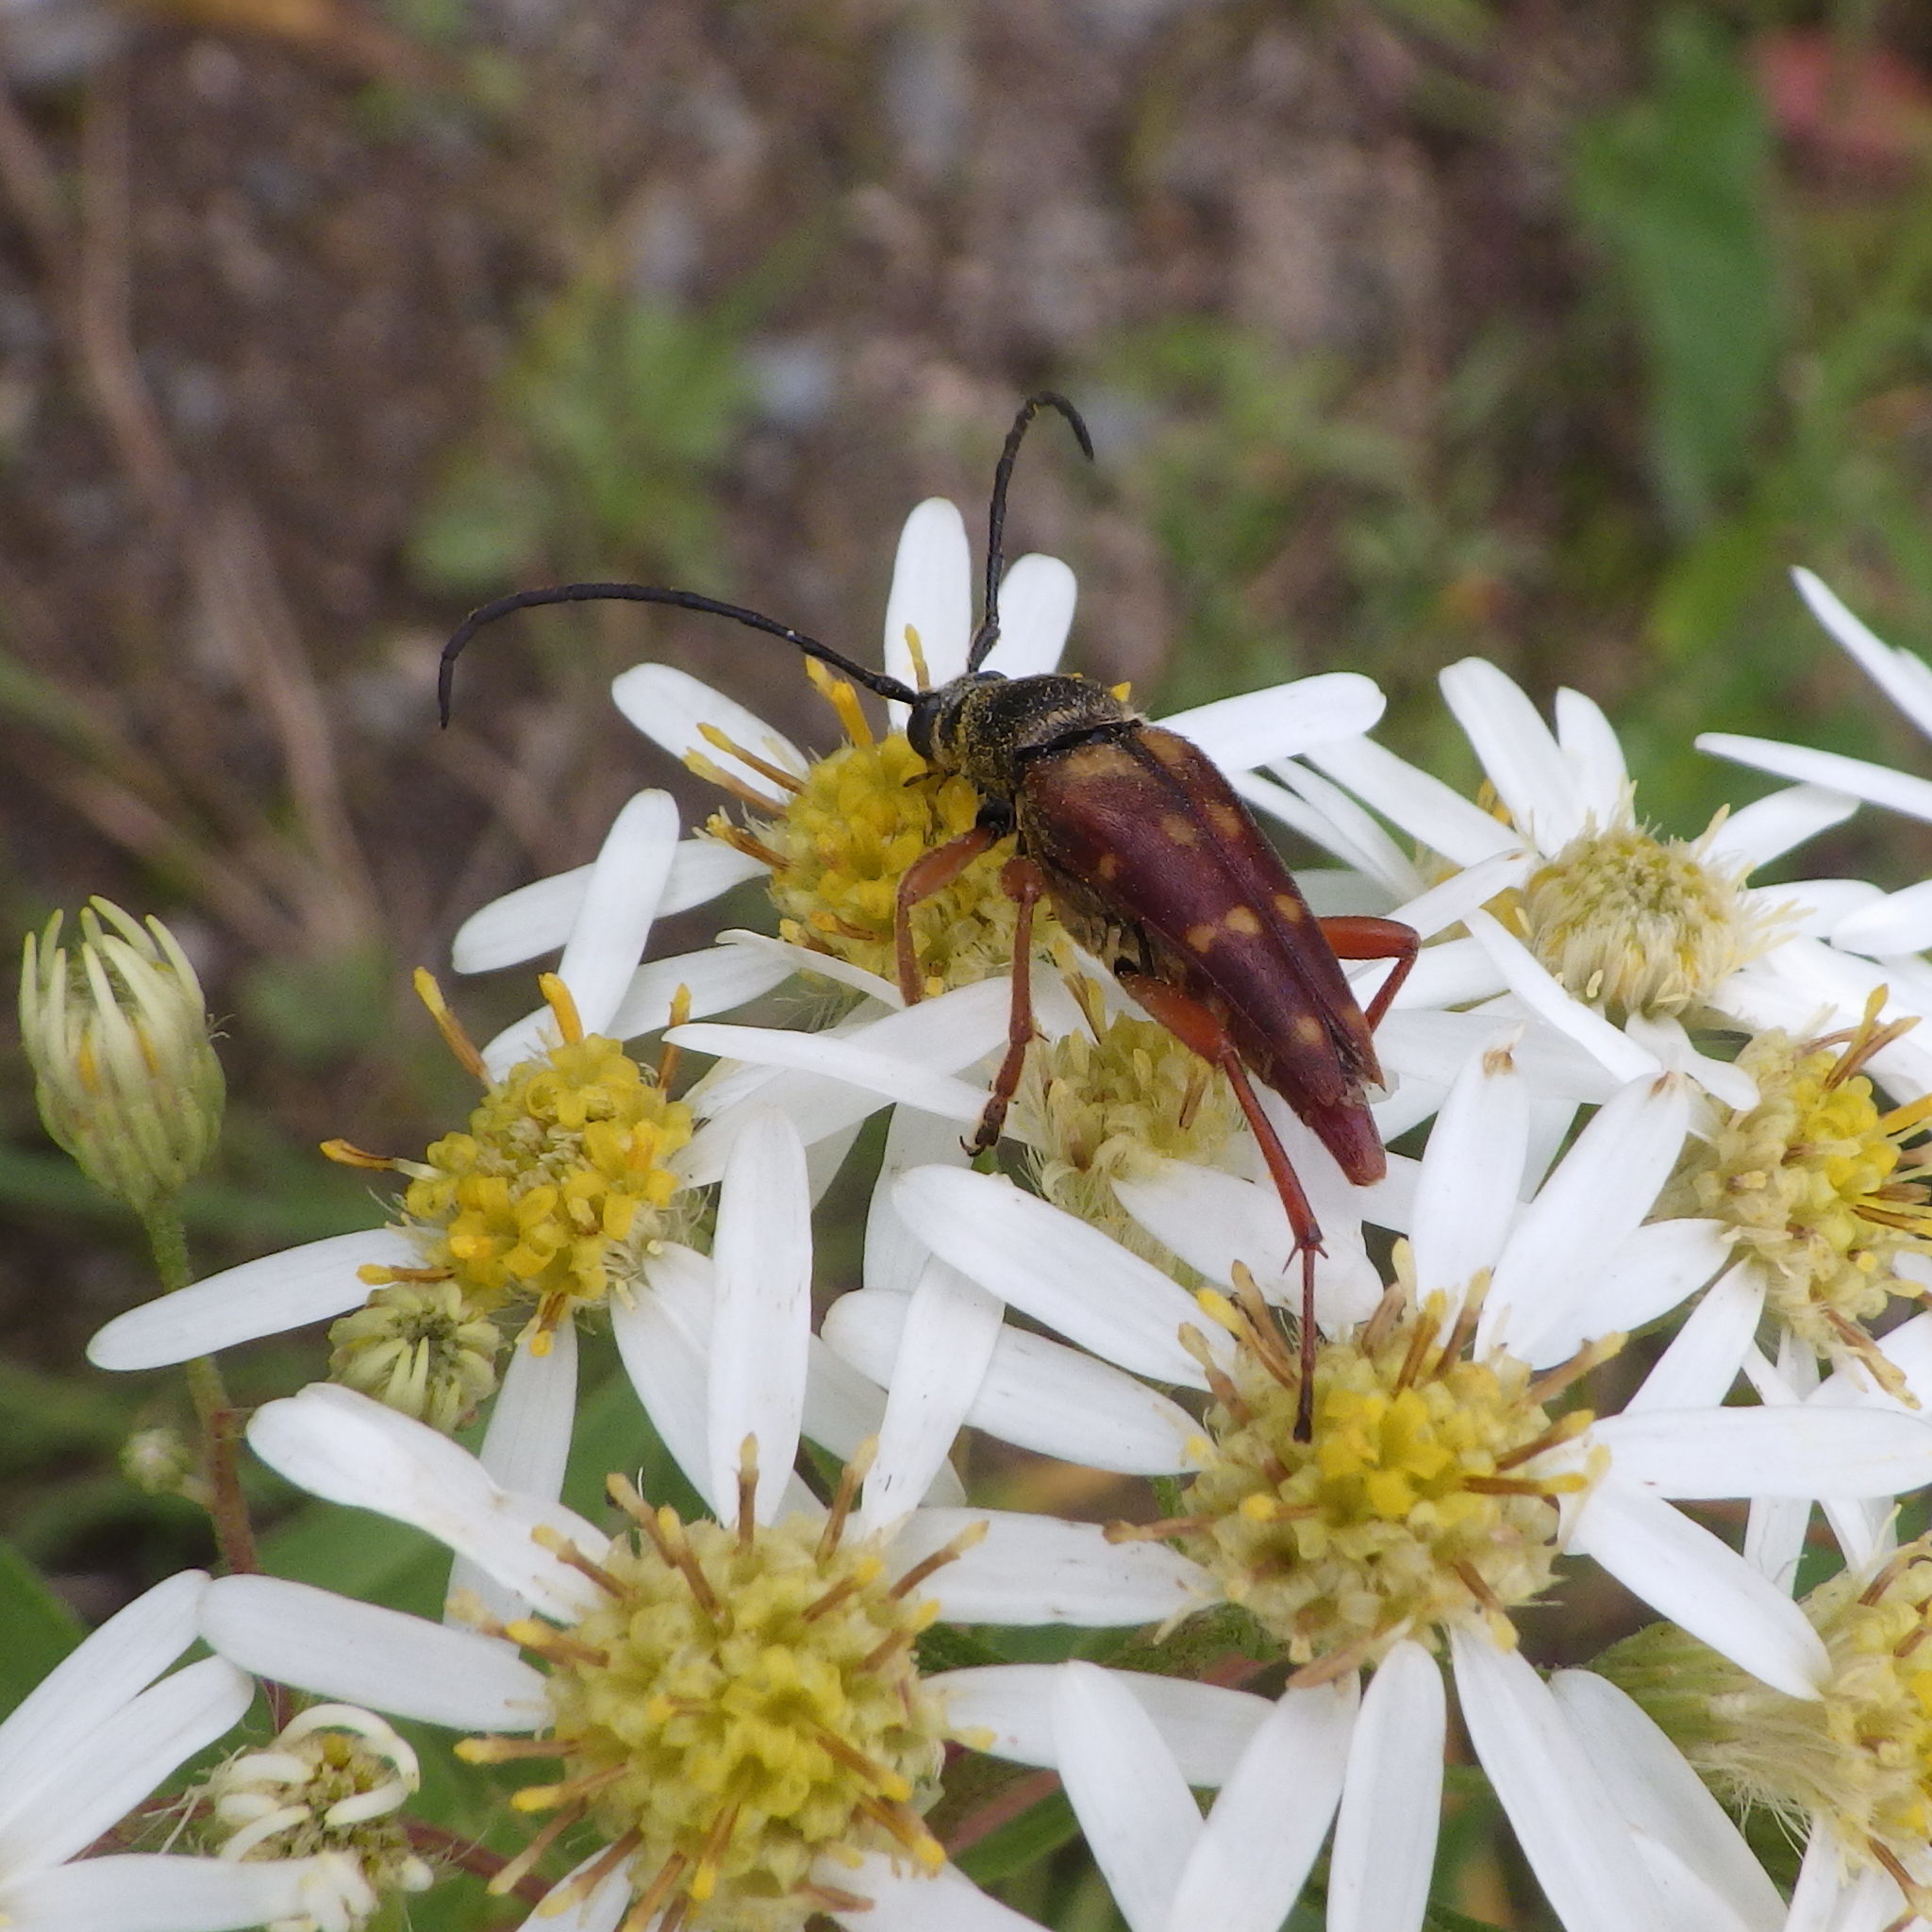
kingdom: Animalia
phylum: Arthropoda
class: Insecta
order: Coleoptera
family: Cerambycidae
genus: Typocerus
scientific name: Typocerus velutinus
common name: Banded longhorn beetle
